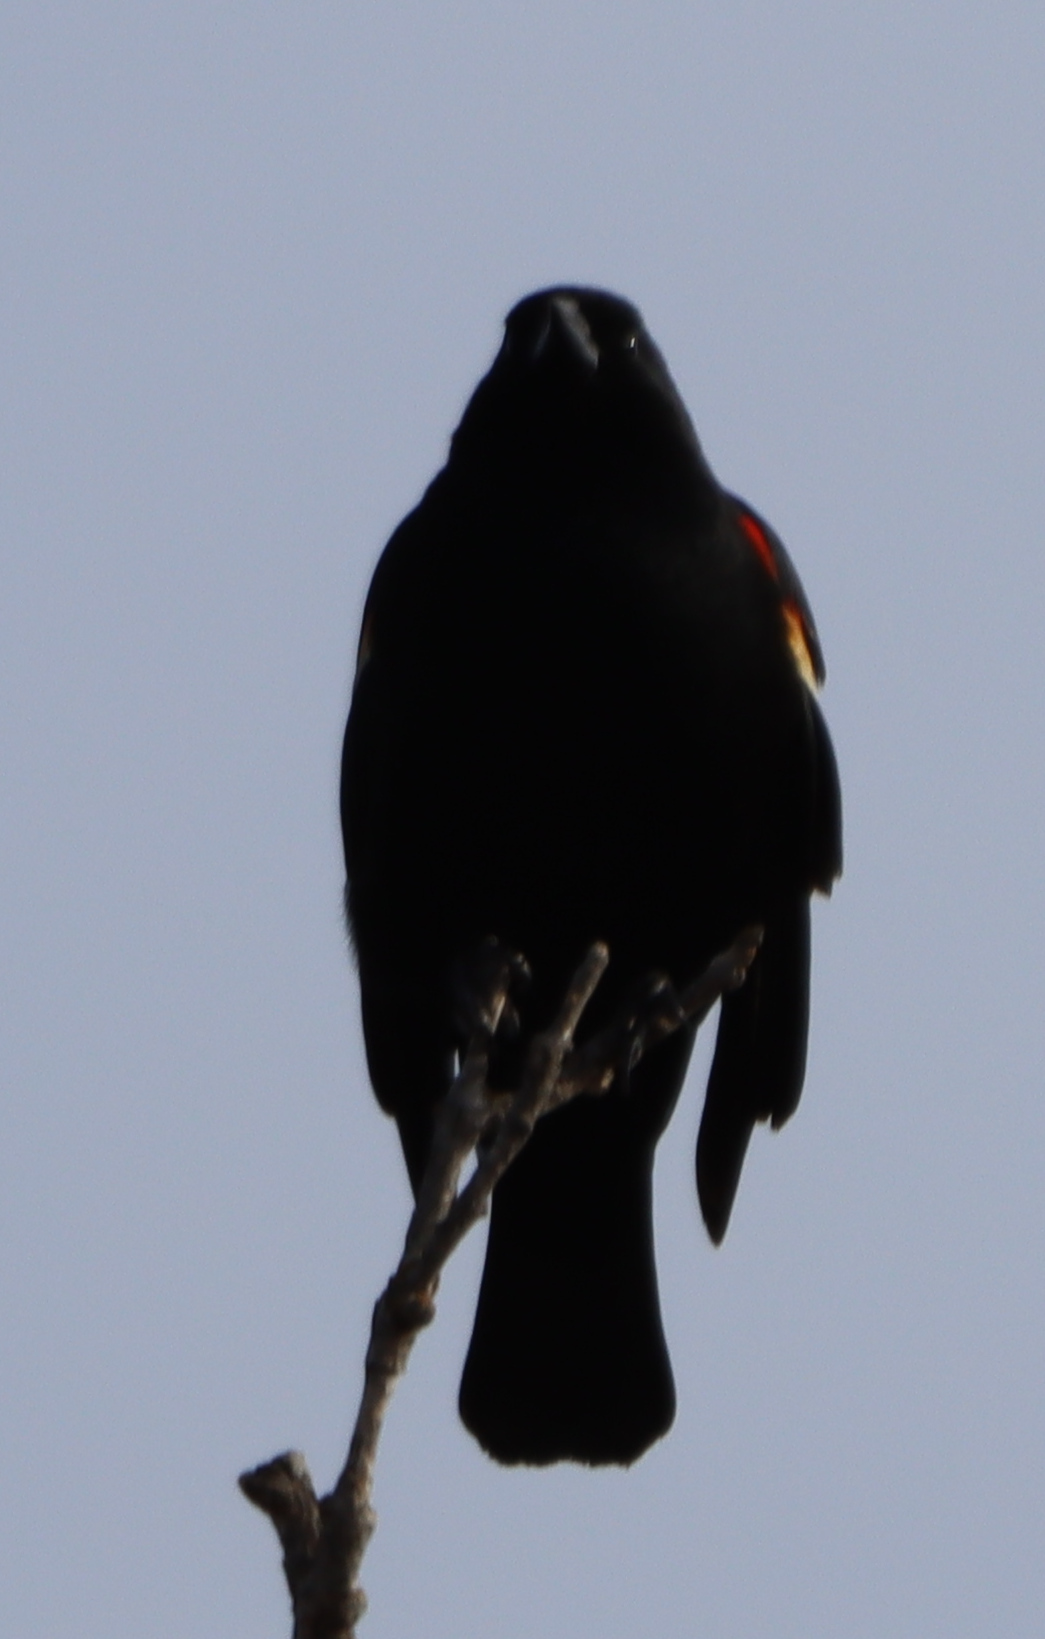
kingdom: Animalia
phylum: Chordata
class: Aves
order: Passeriformes
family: Icteridae
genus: Agelaius
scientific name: Agelaius phoeniceus
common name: Red-winged blackbird
